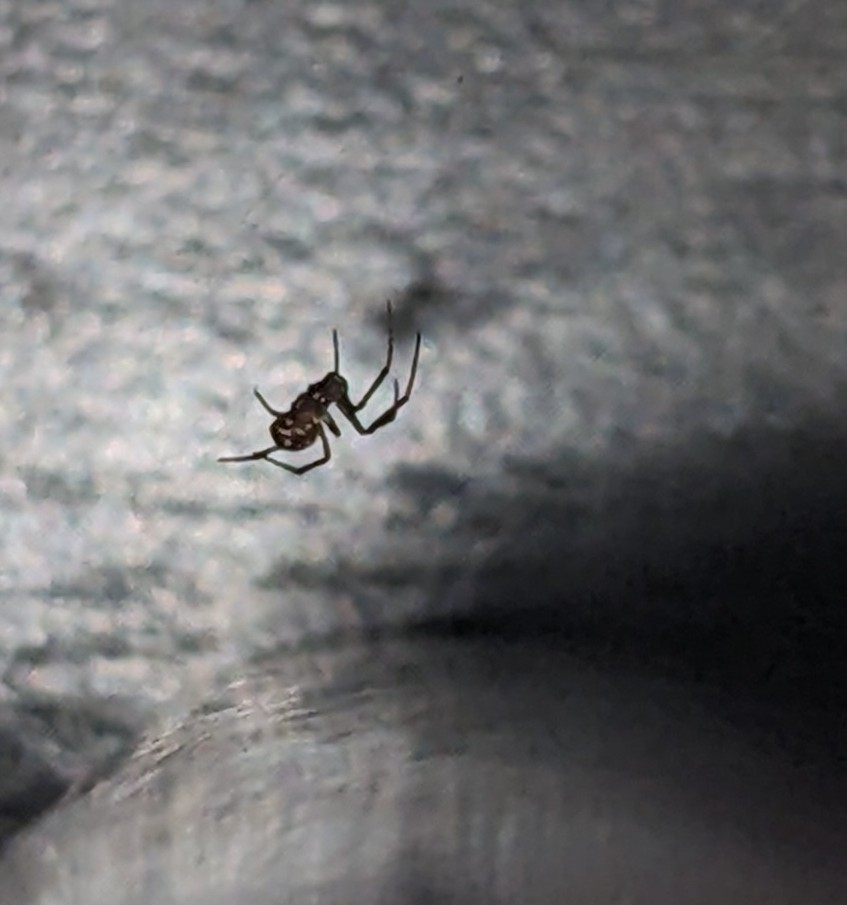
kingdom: Animalia
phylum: Arthropoda
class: Arachnida
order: Araneae
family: Theridiidae
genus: Steatoda
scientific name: Steatoda triangulosa
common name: Triangulate bud spider
